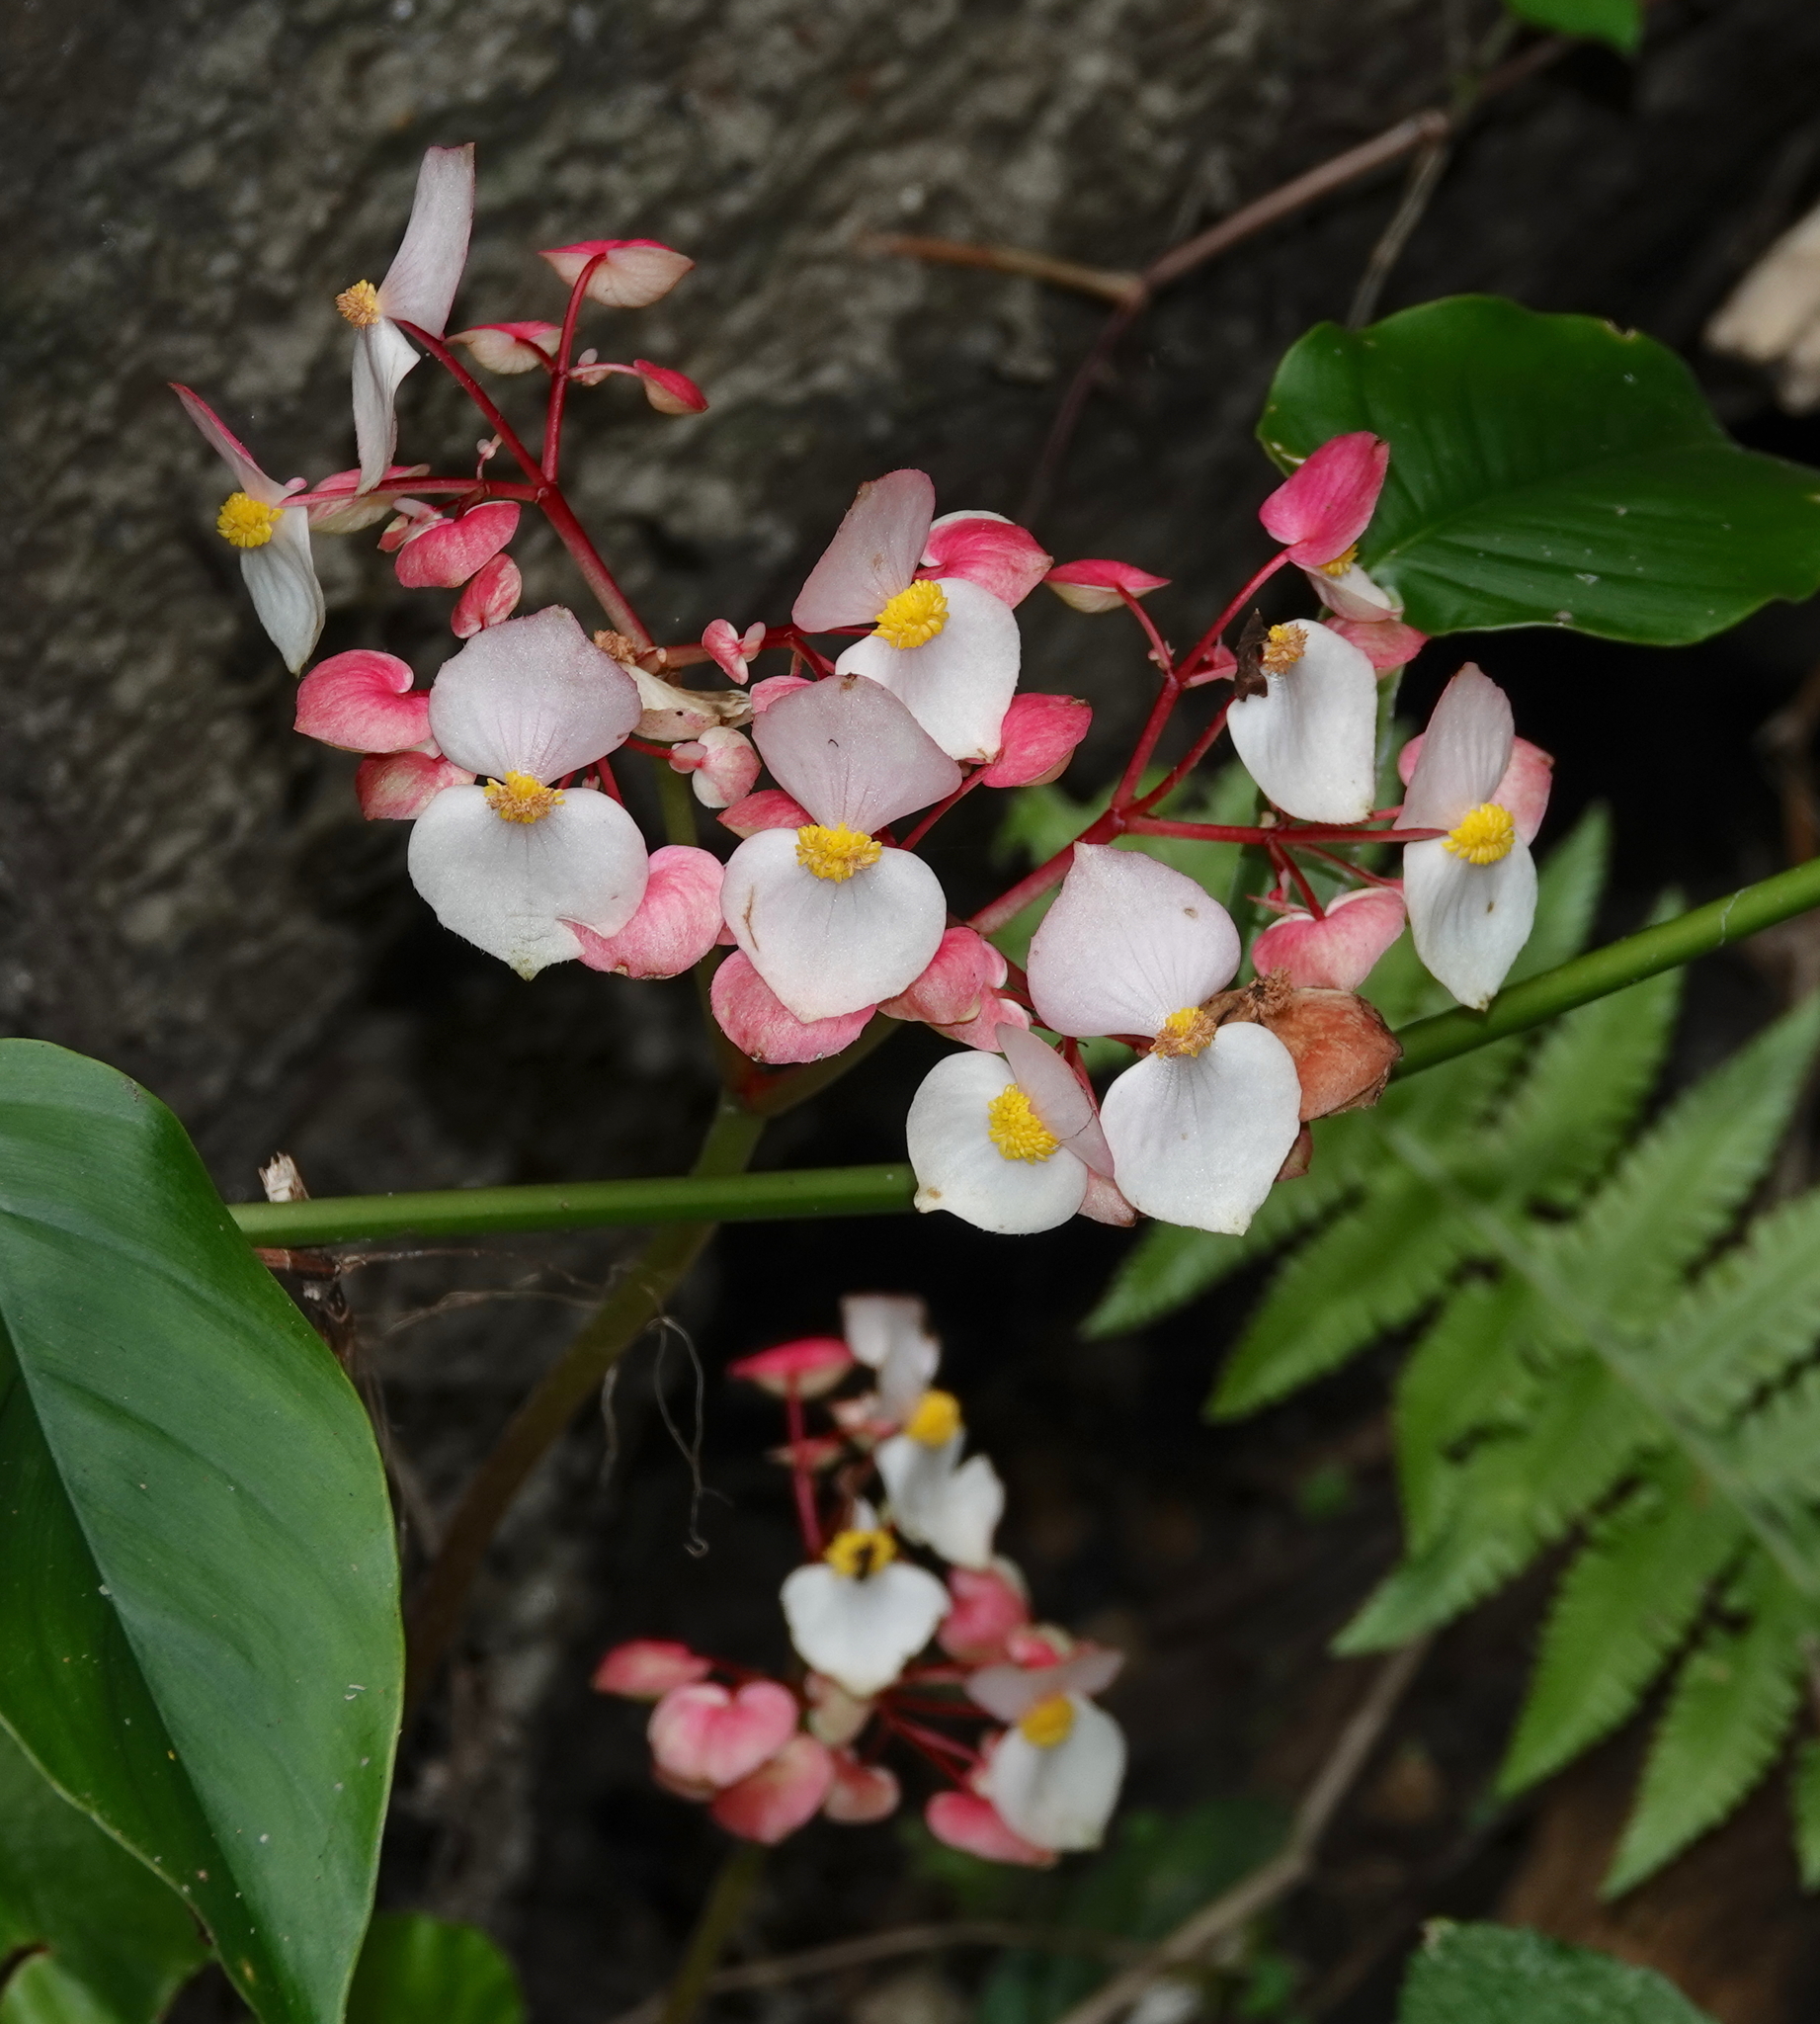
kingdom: Plantae
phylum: Tracheophyta
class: Magnoliopsida
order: Cucurbitales
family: Begoniaceae
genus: Begonia
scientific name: Begonia urophylla
